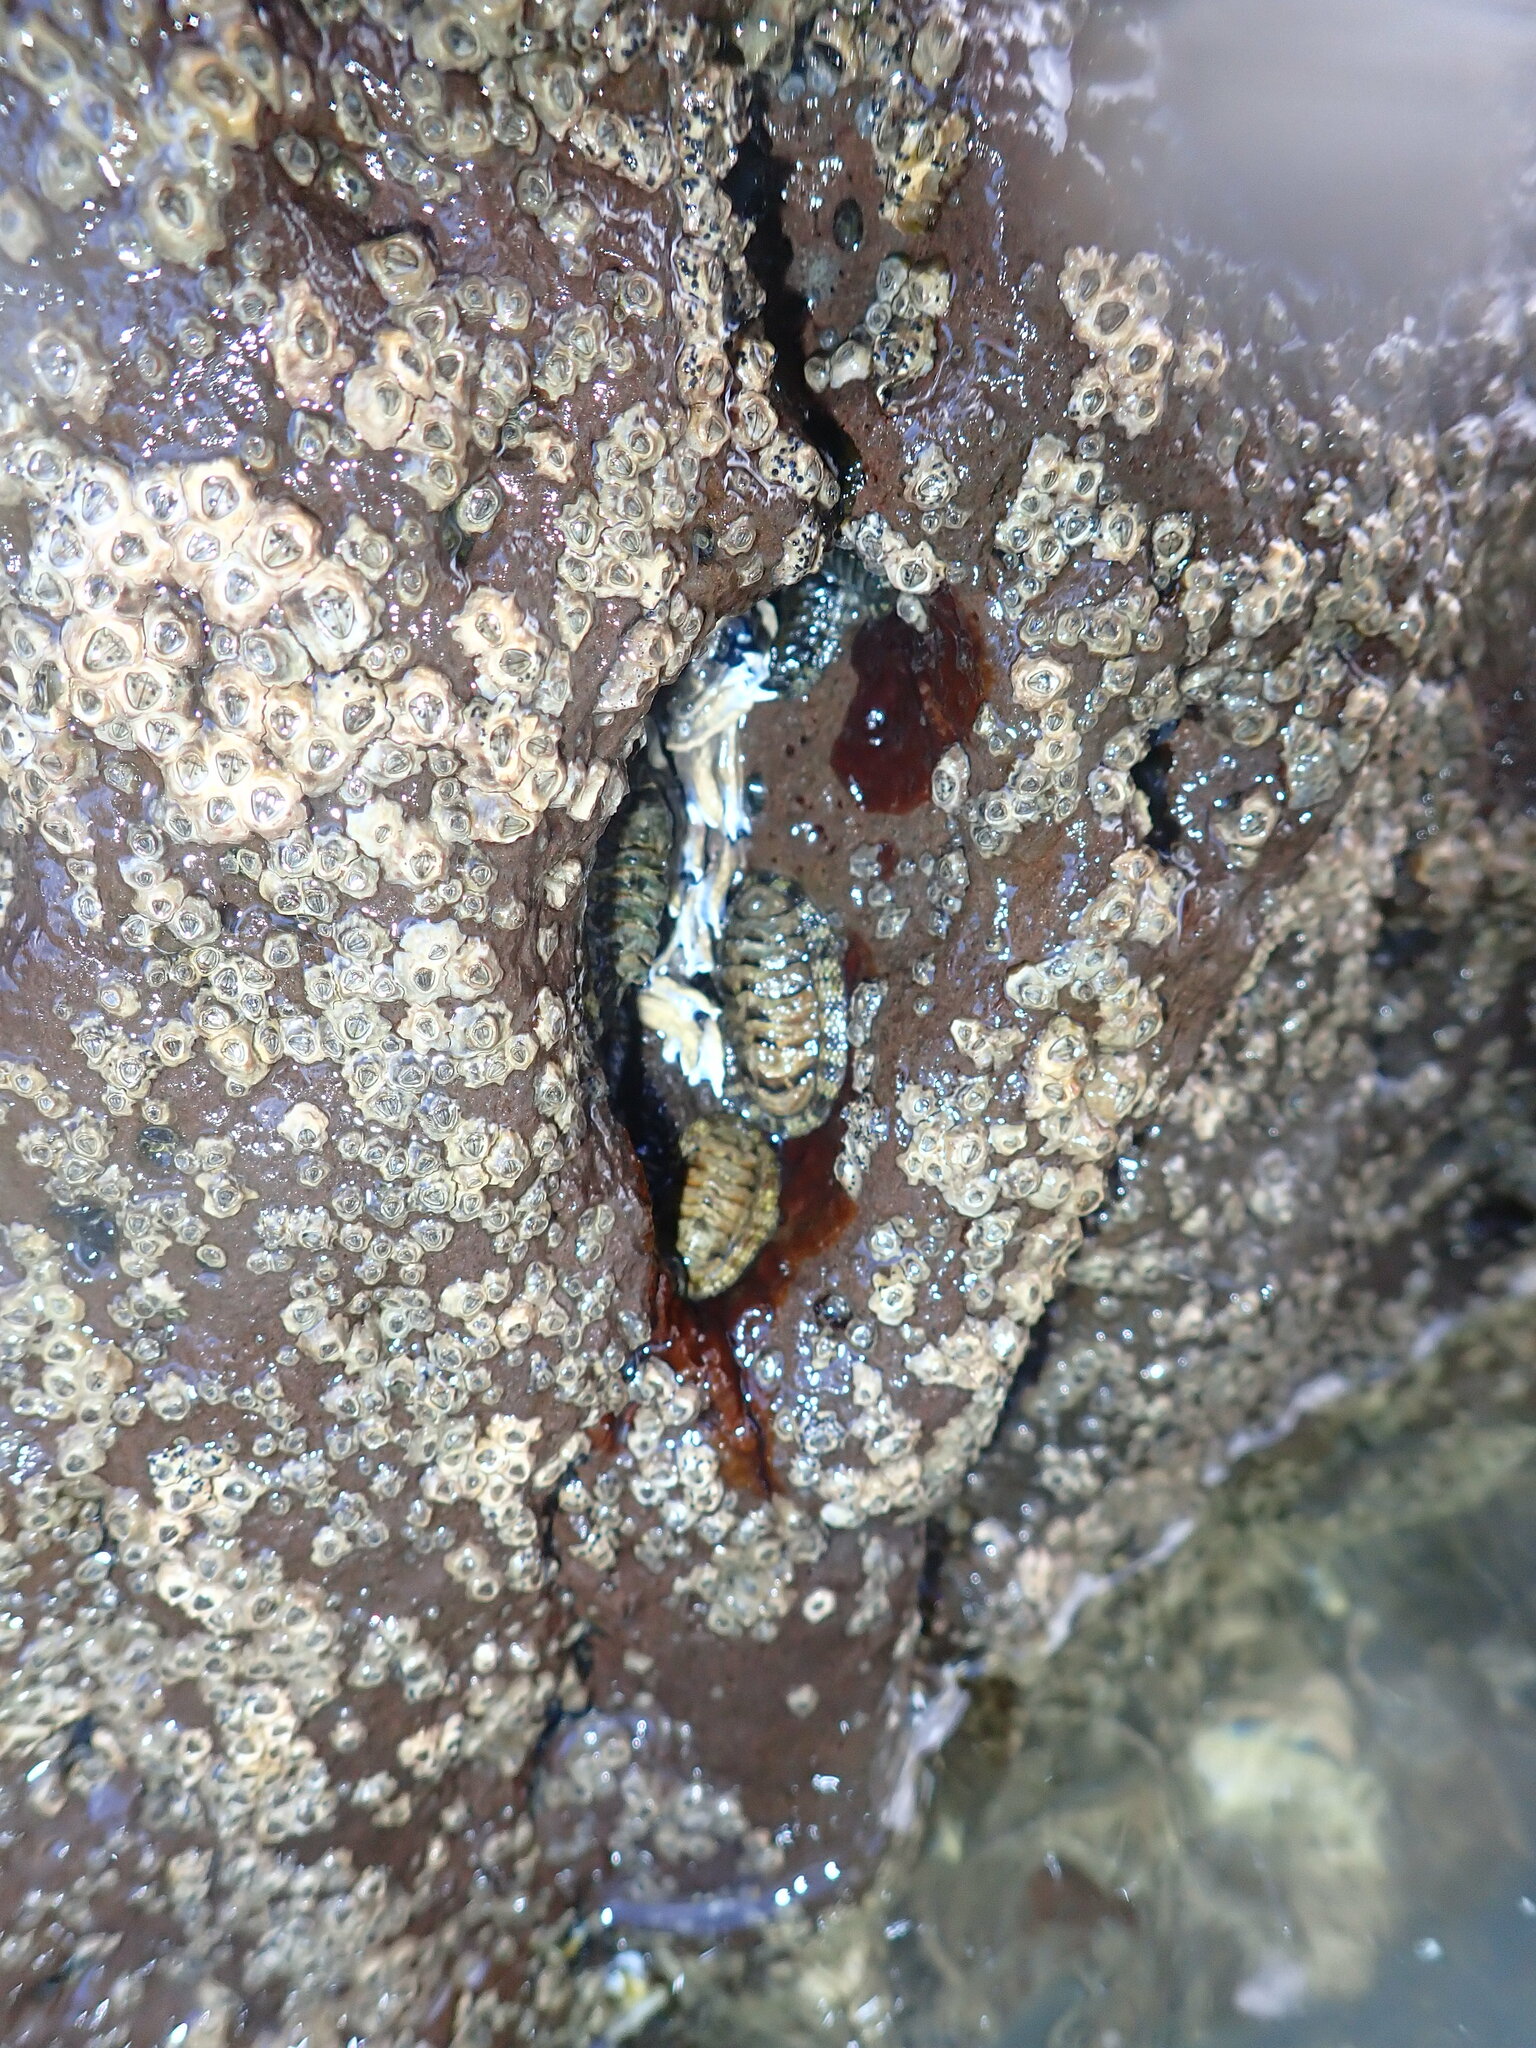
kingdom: Animalia
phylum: Mollusca
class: Polyplacophora
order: Chitonida
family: Chitonidae
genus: Sypharochiton
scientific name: Sypharochiton pelliserpentis
